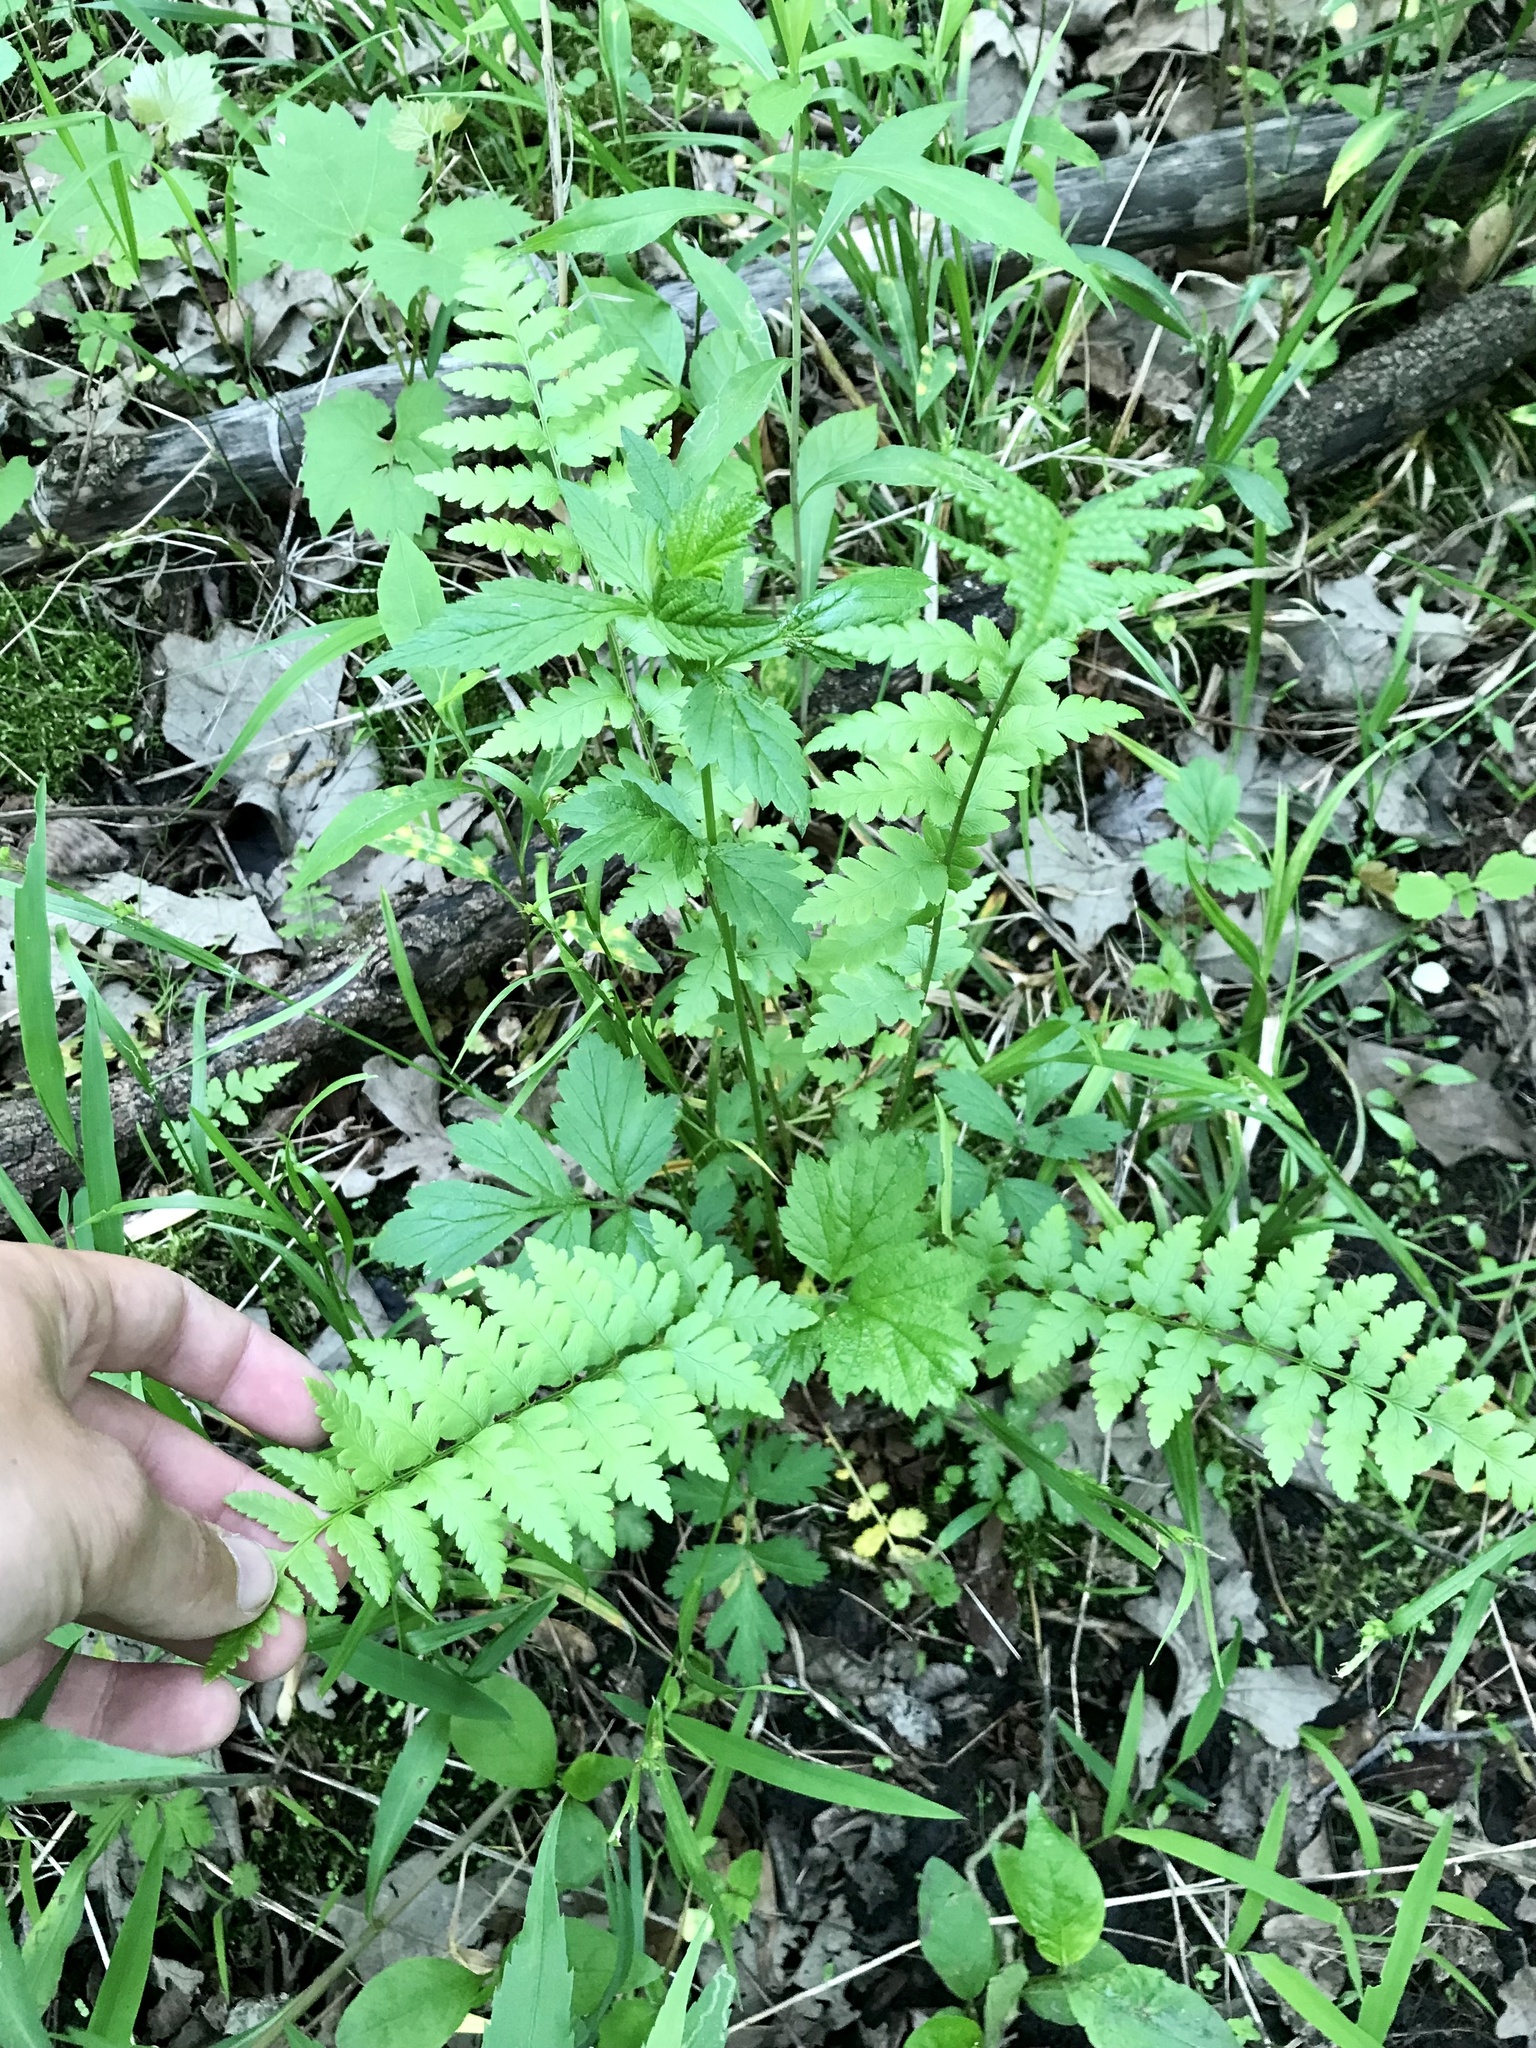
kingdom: Plantae
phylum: Tracheophyta
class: Polypodiopsida
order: Polypodiales
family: Dryopteridaceae
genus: Dryopteris
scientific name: Dryopteris cristata
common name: Crested wood fern
